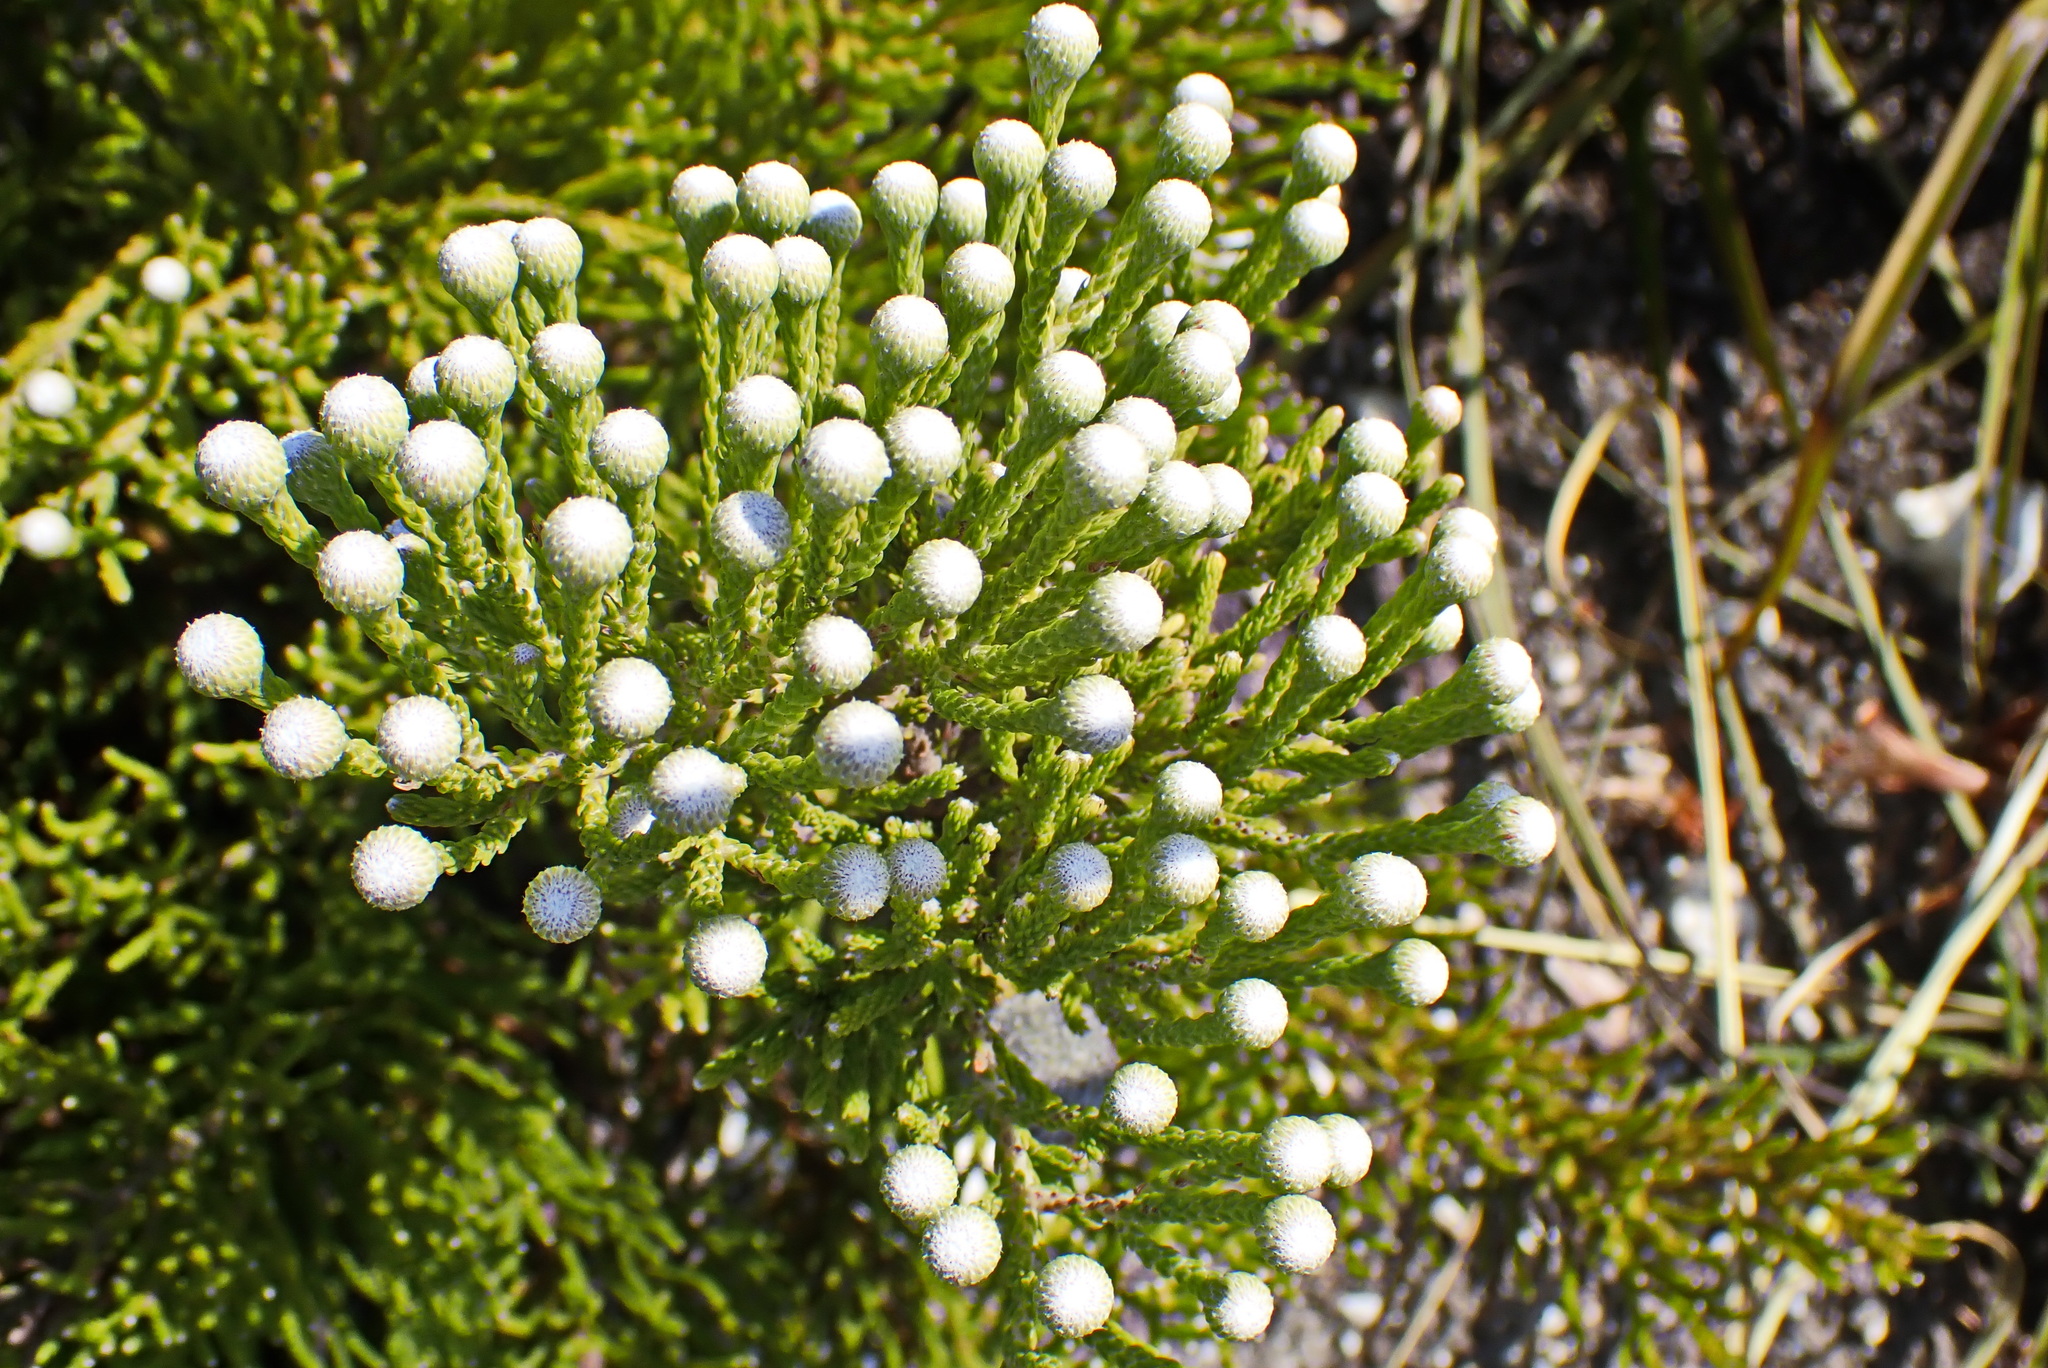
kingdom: Plantae
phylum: Tracheophyta
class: Magnoliopsida
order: Bruniales
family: Bruniaceae
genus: Brunia
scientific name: Brunia noduliflora
